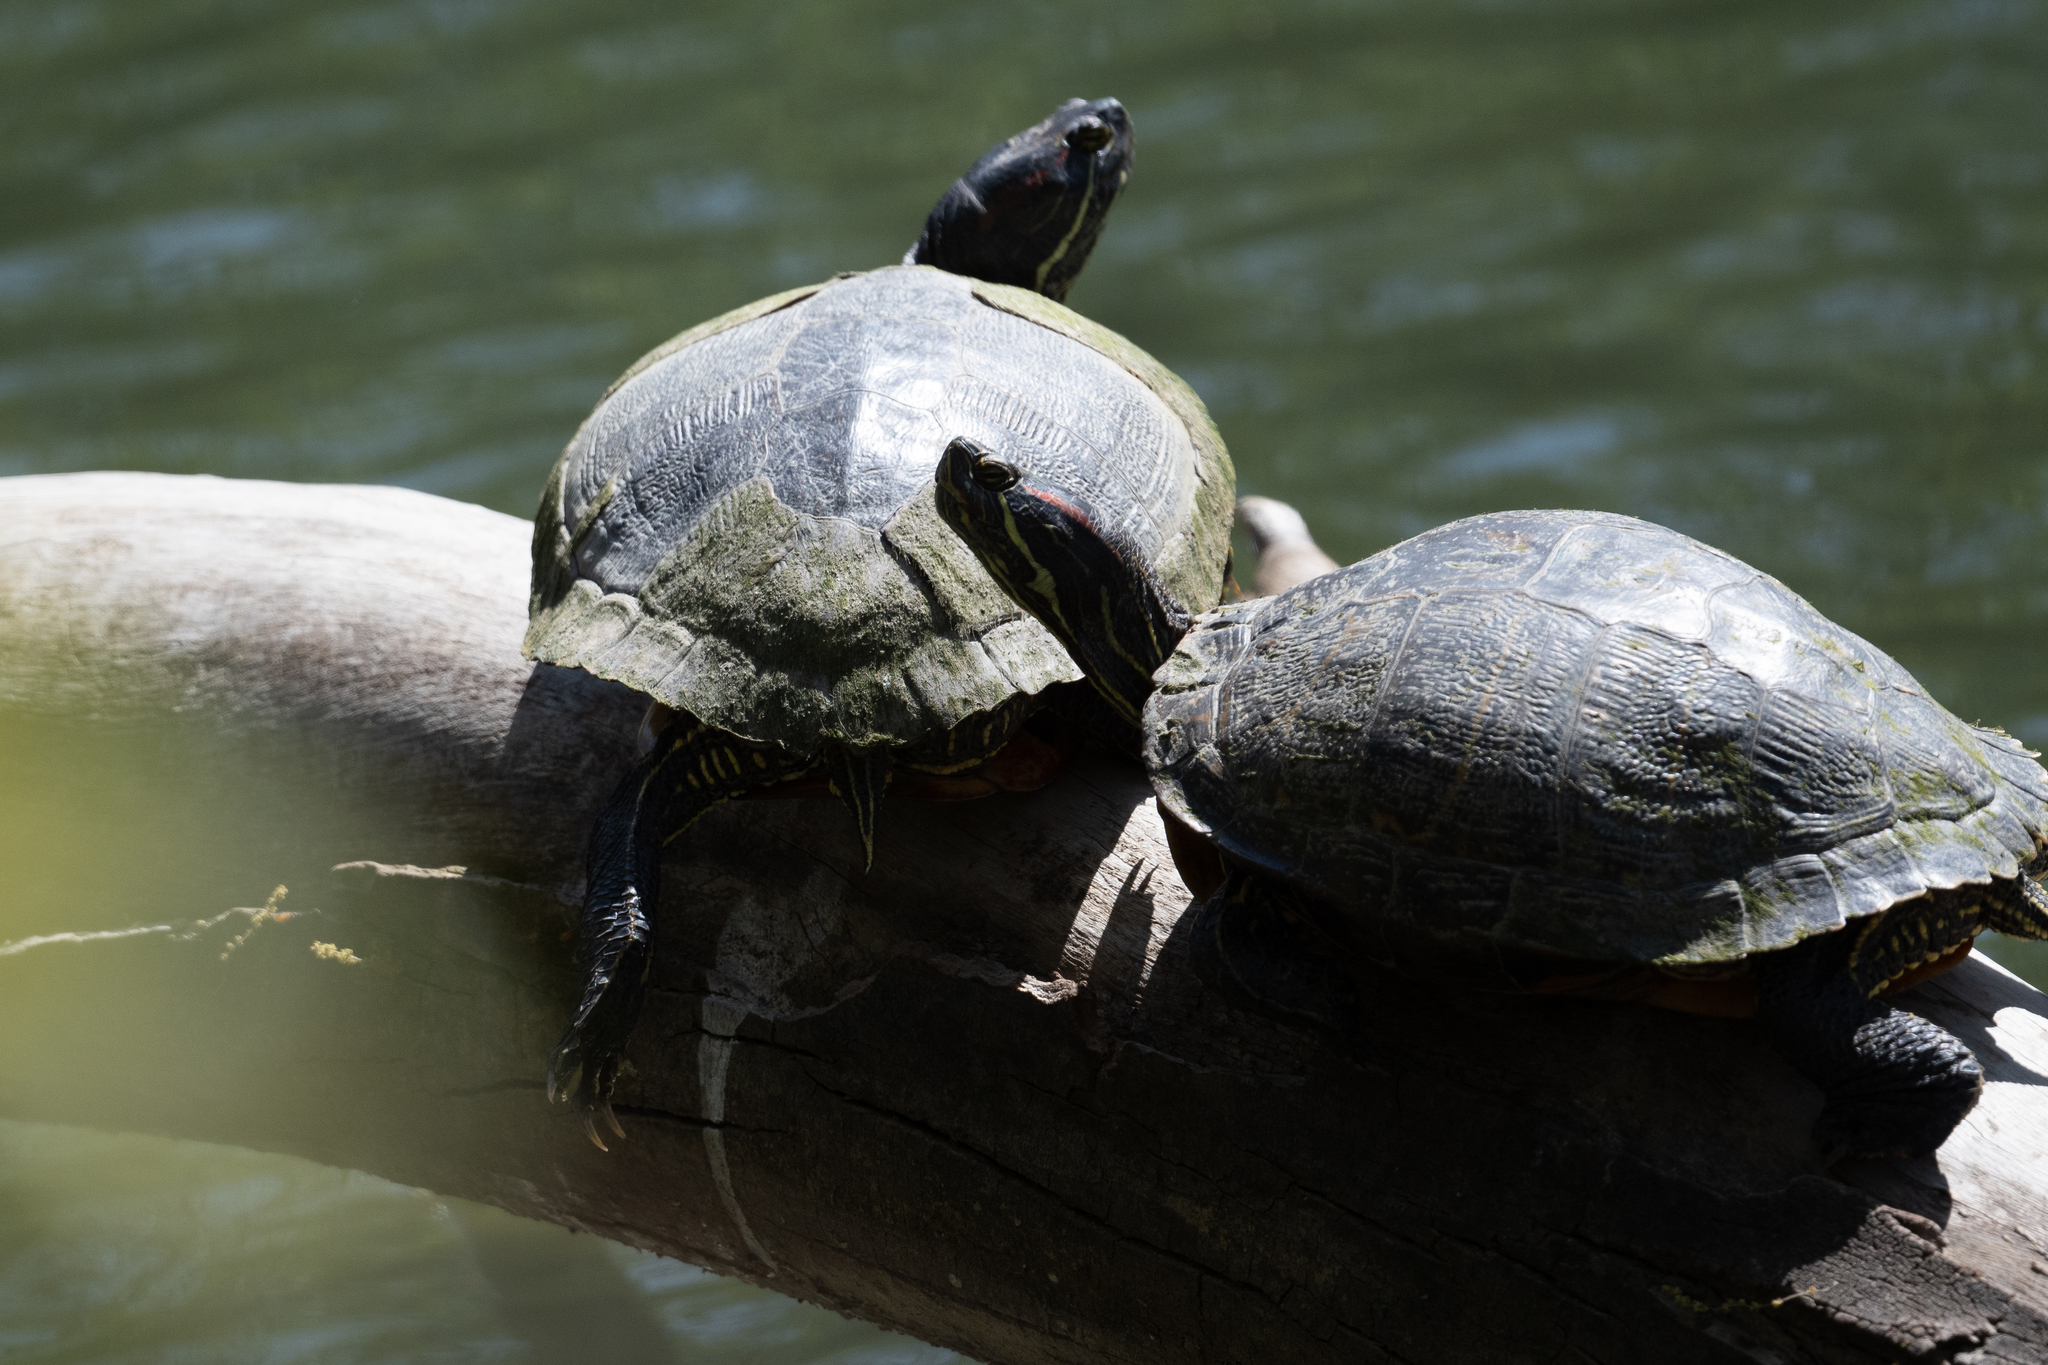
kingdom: Animalia
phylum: Chordata
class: Testudines
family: Emydidae
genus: Trachemys
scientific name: Trachemys scripta
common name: Slider
